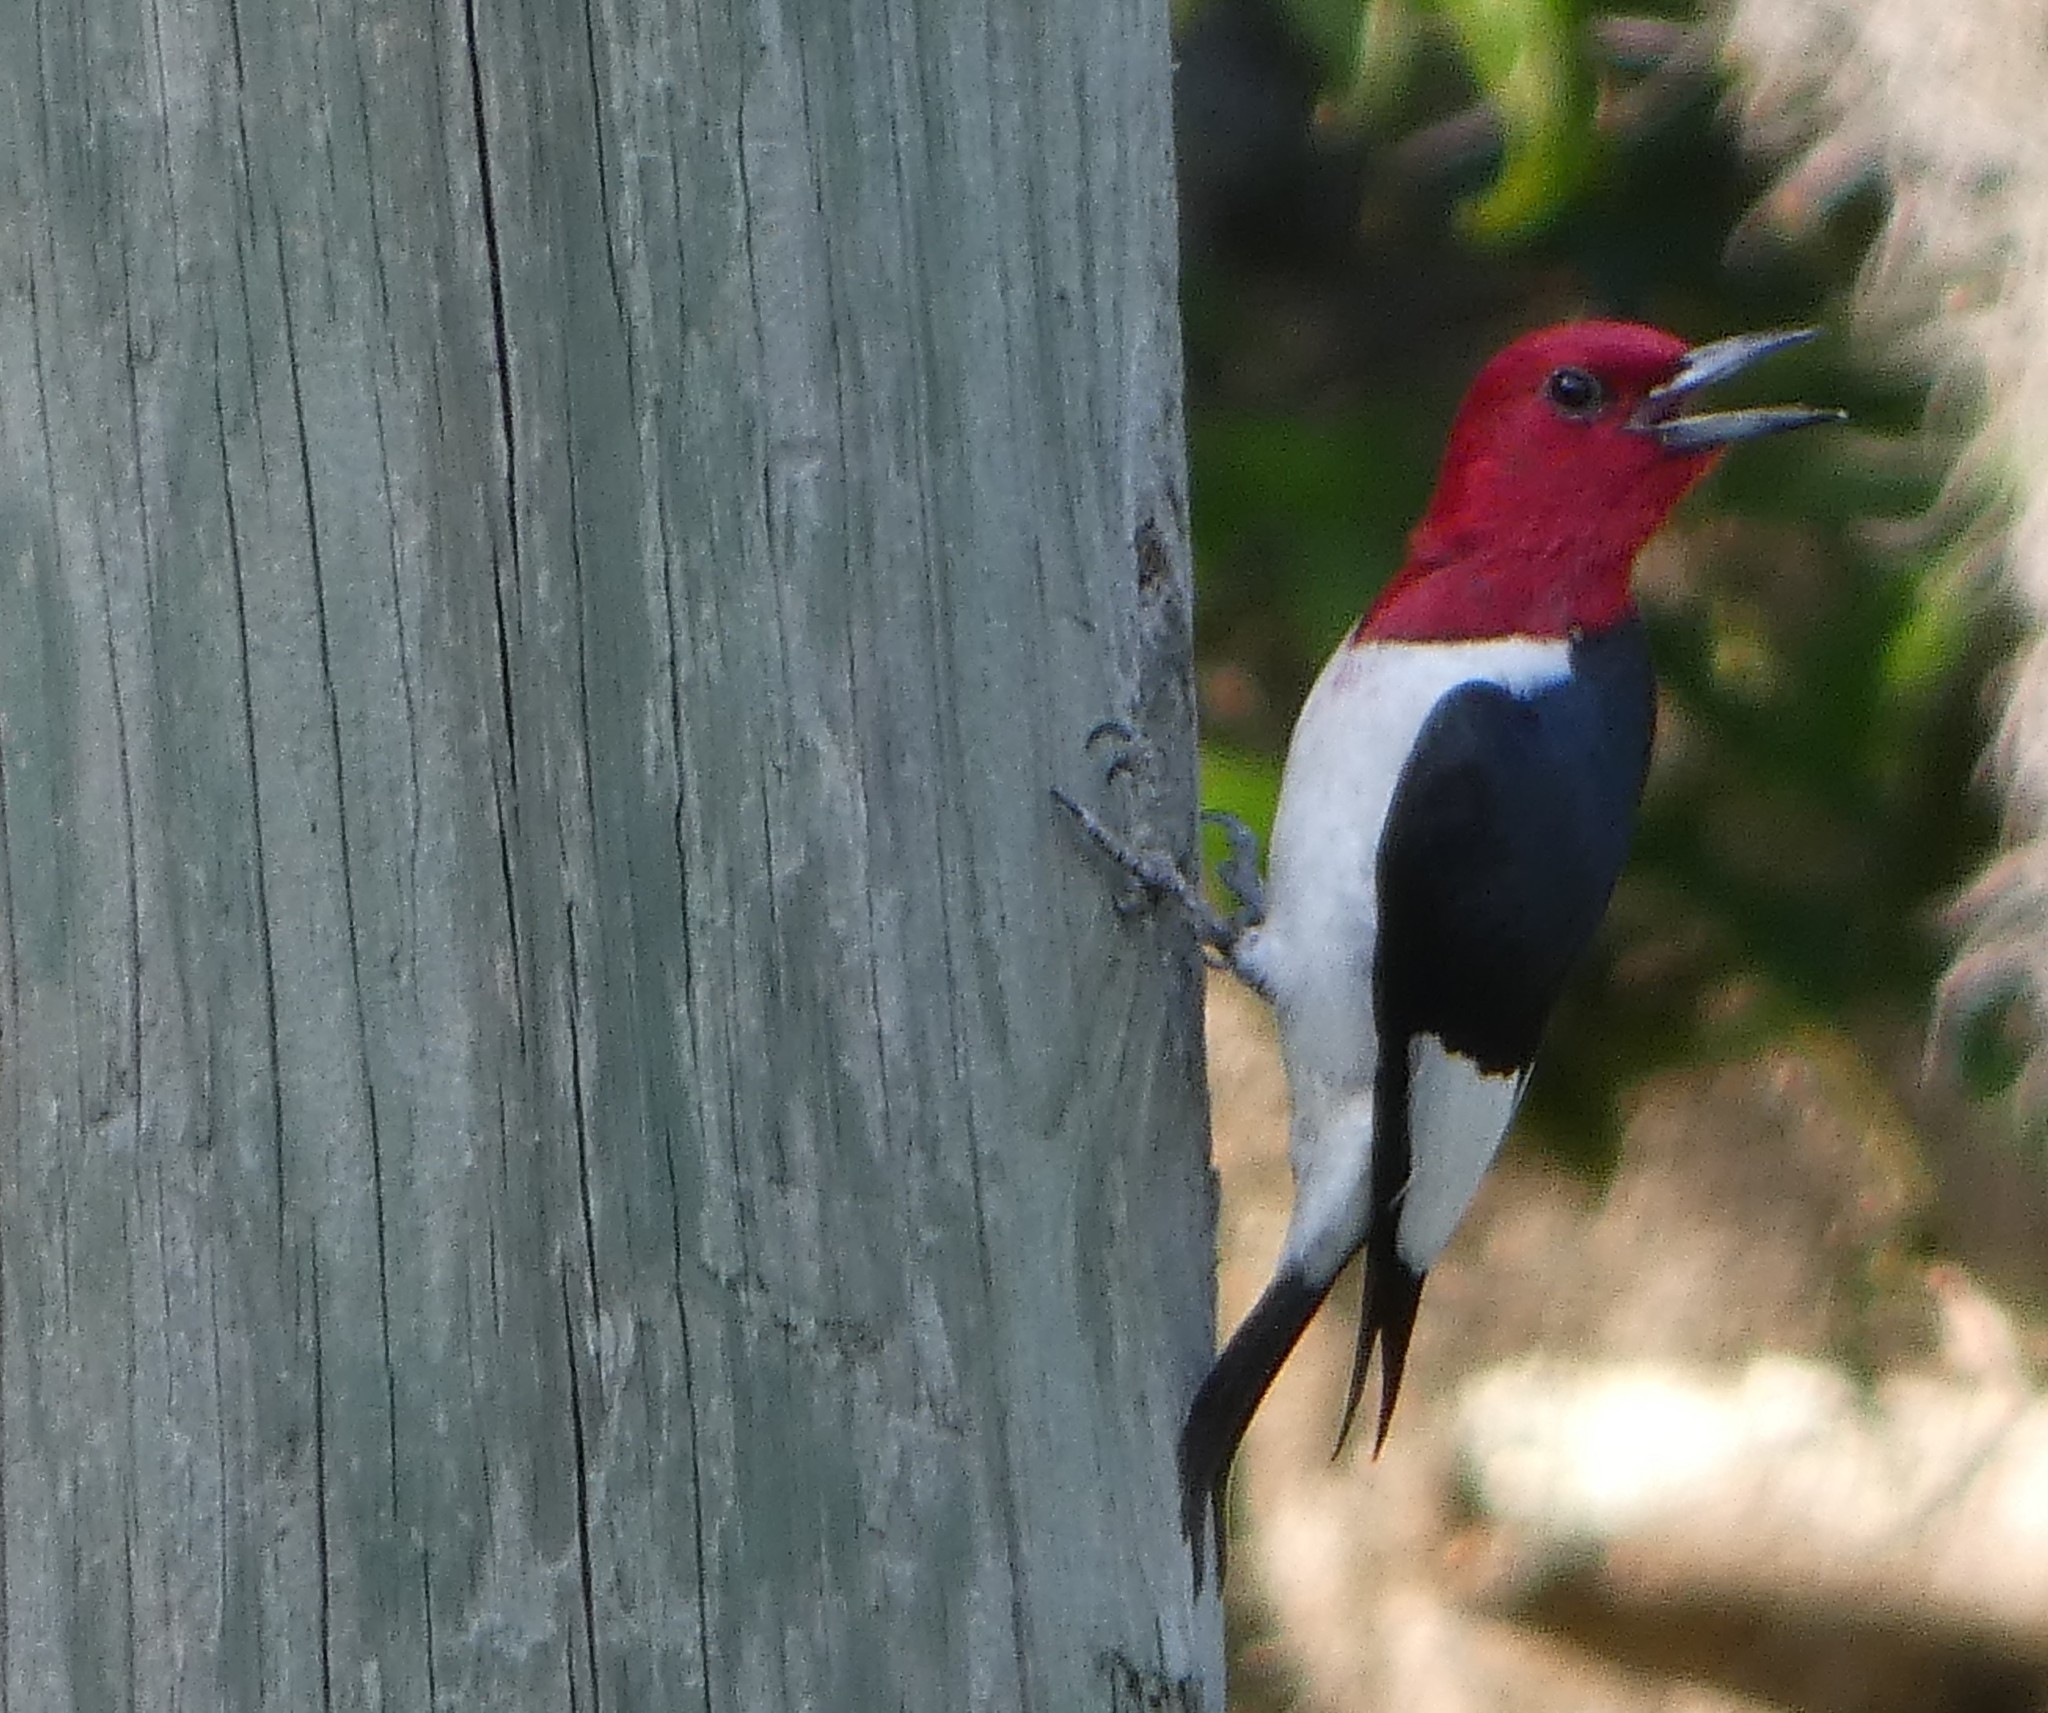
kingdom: Animalia
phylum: Chordata
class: Aves
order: Piciformes
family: Picidae
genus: Melanerpes
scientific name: Melanerpes erythrocephalus
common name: Red-headed woodpecker
